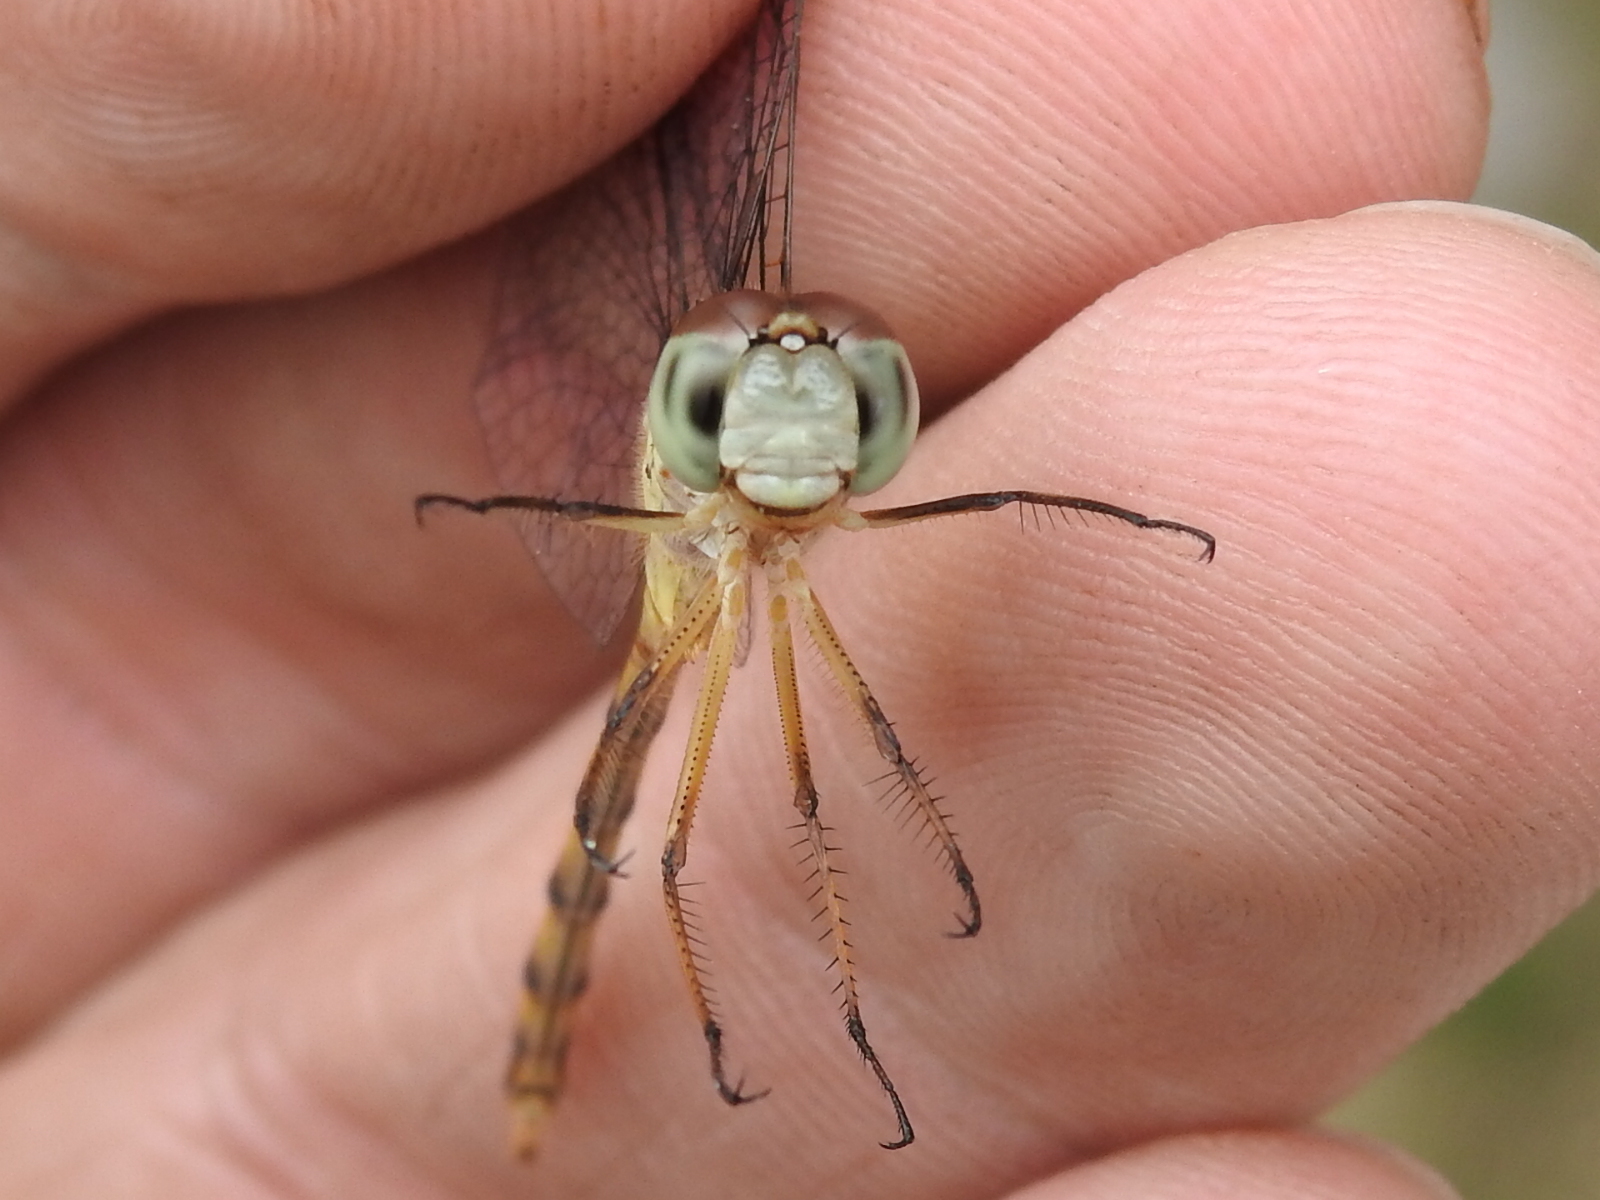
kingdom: Animalia
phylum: Arthropoda
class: Insecta
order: Odonata
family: Libellulidae
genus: Sympetrum
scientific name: Sympetrum ambiguum
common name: Blue-faced meadowhawk
